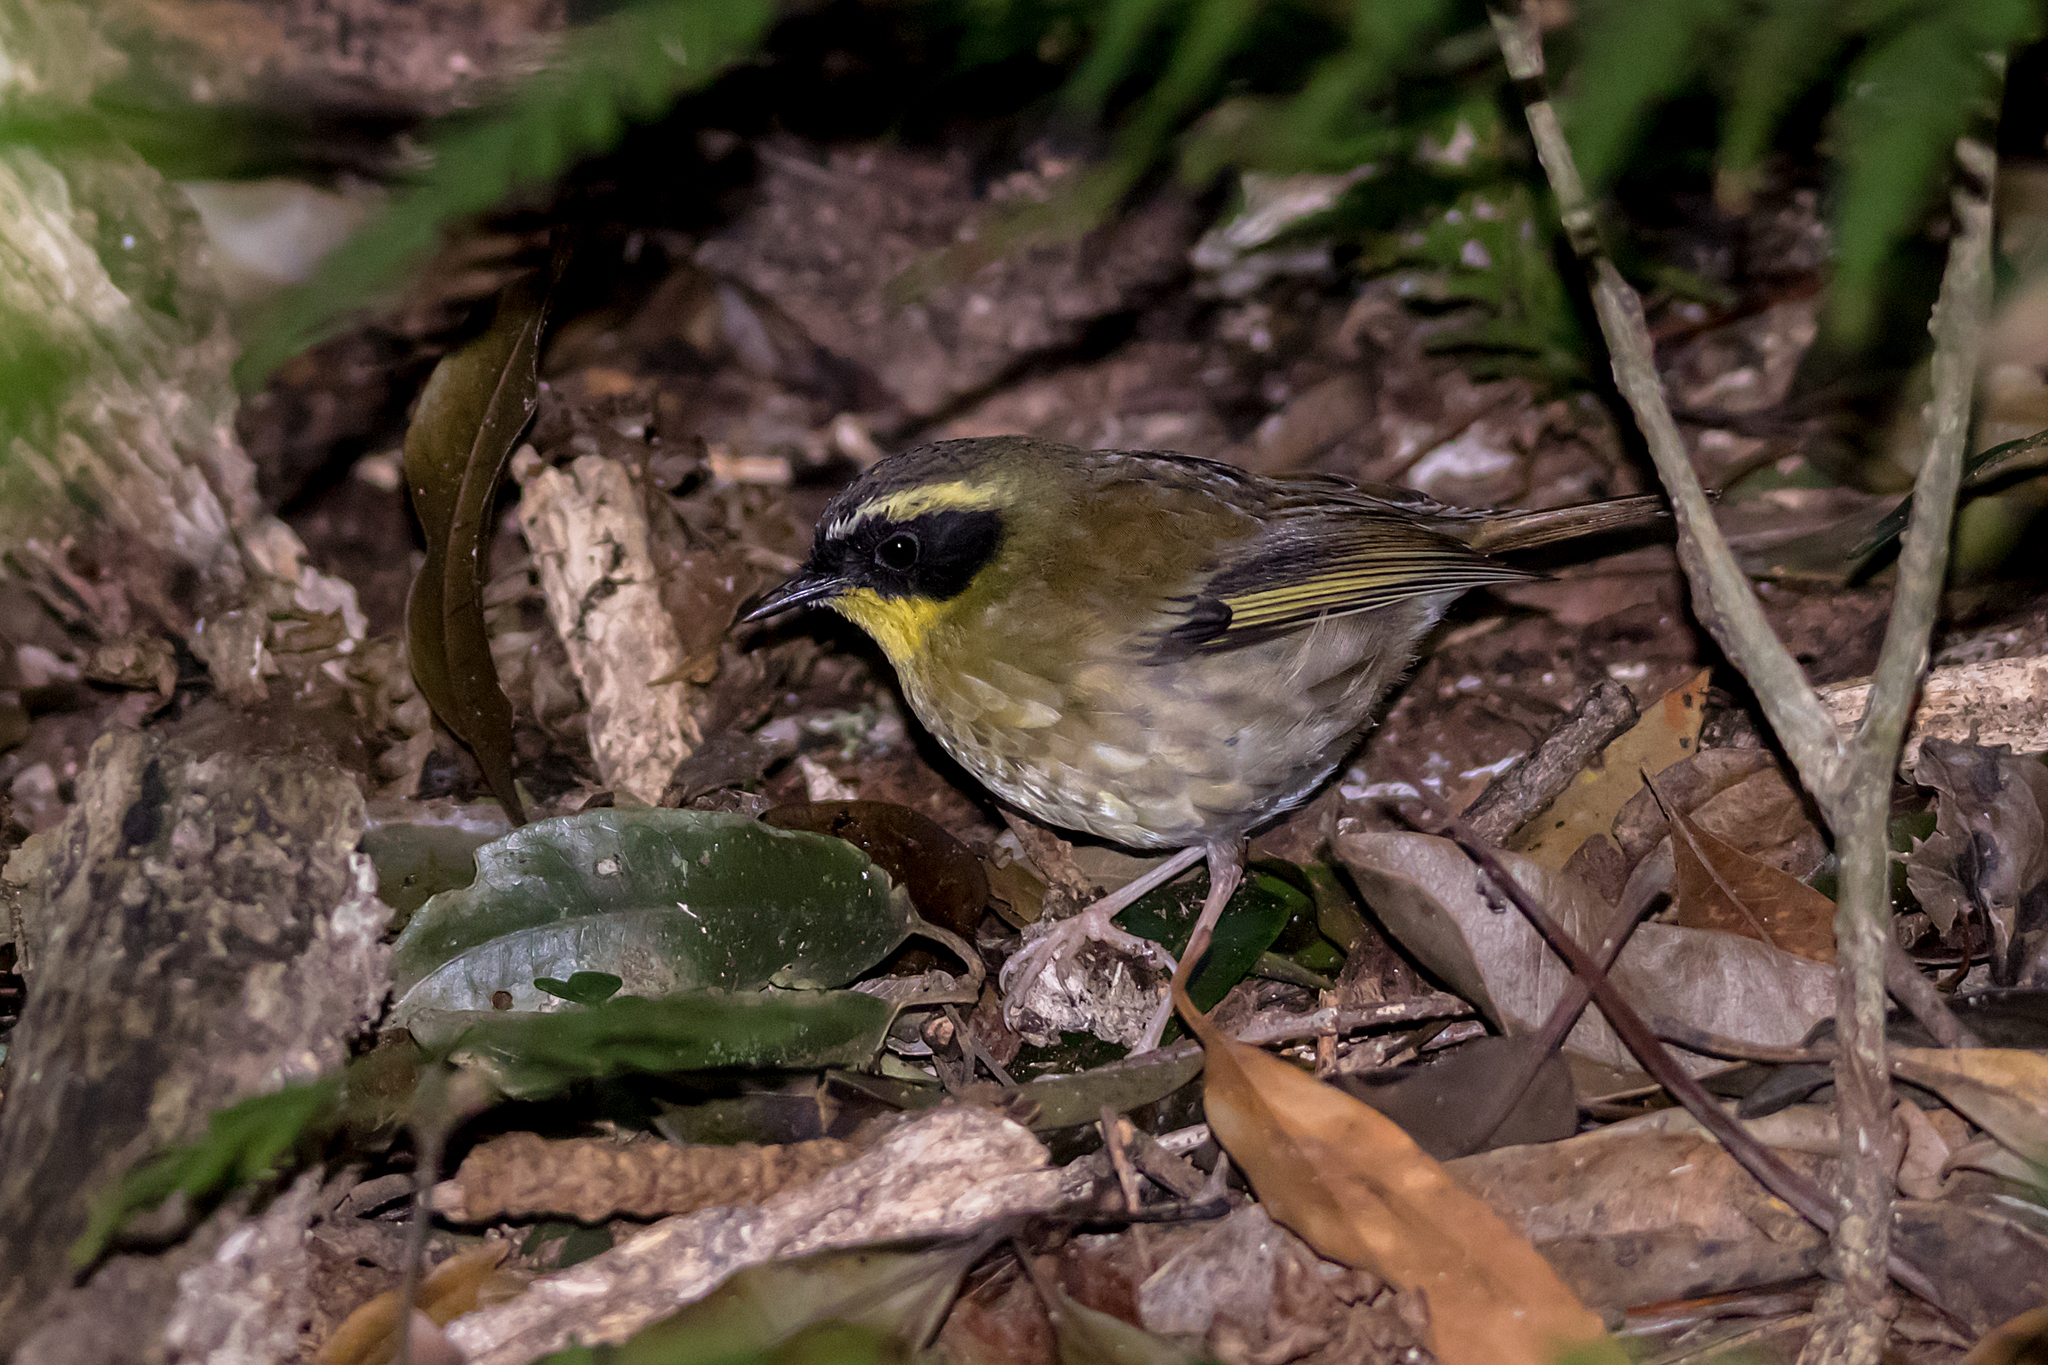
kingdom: Animalia
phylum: Chordata
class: Aves
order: Passeriformes
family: Acanthizidae
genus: Sericornis
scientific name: Sericornis citreogularis
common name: Yellow-throated scrubwren
